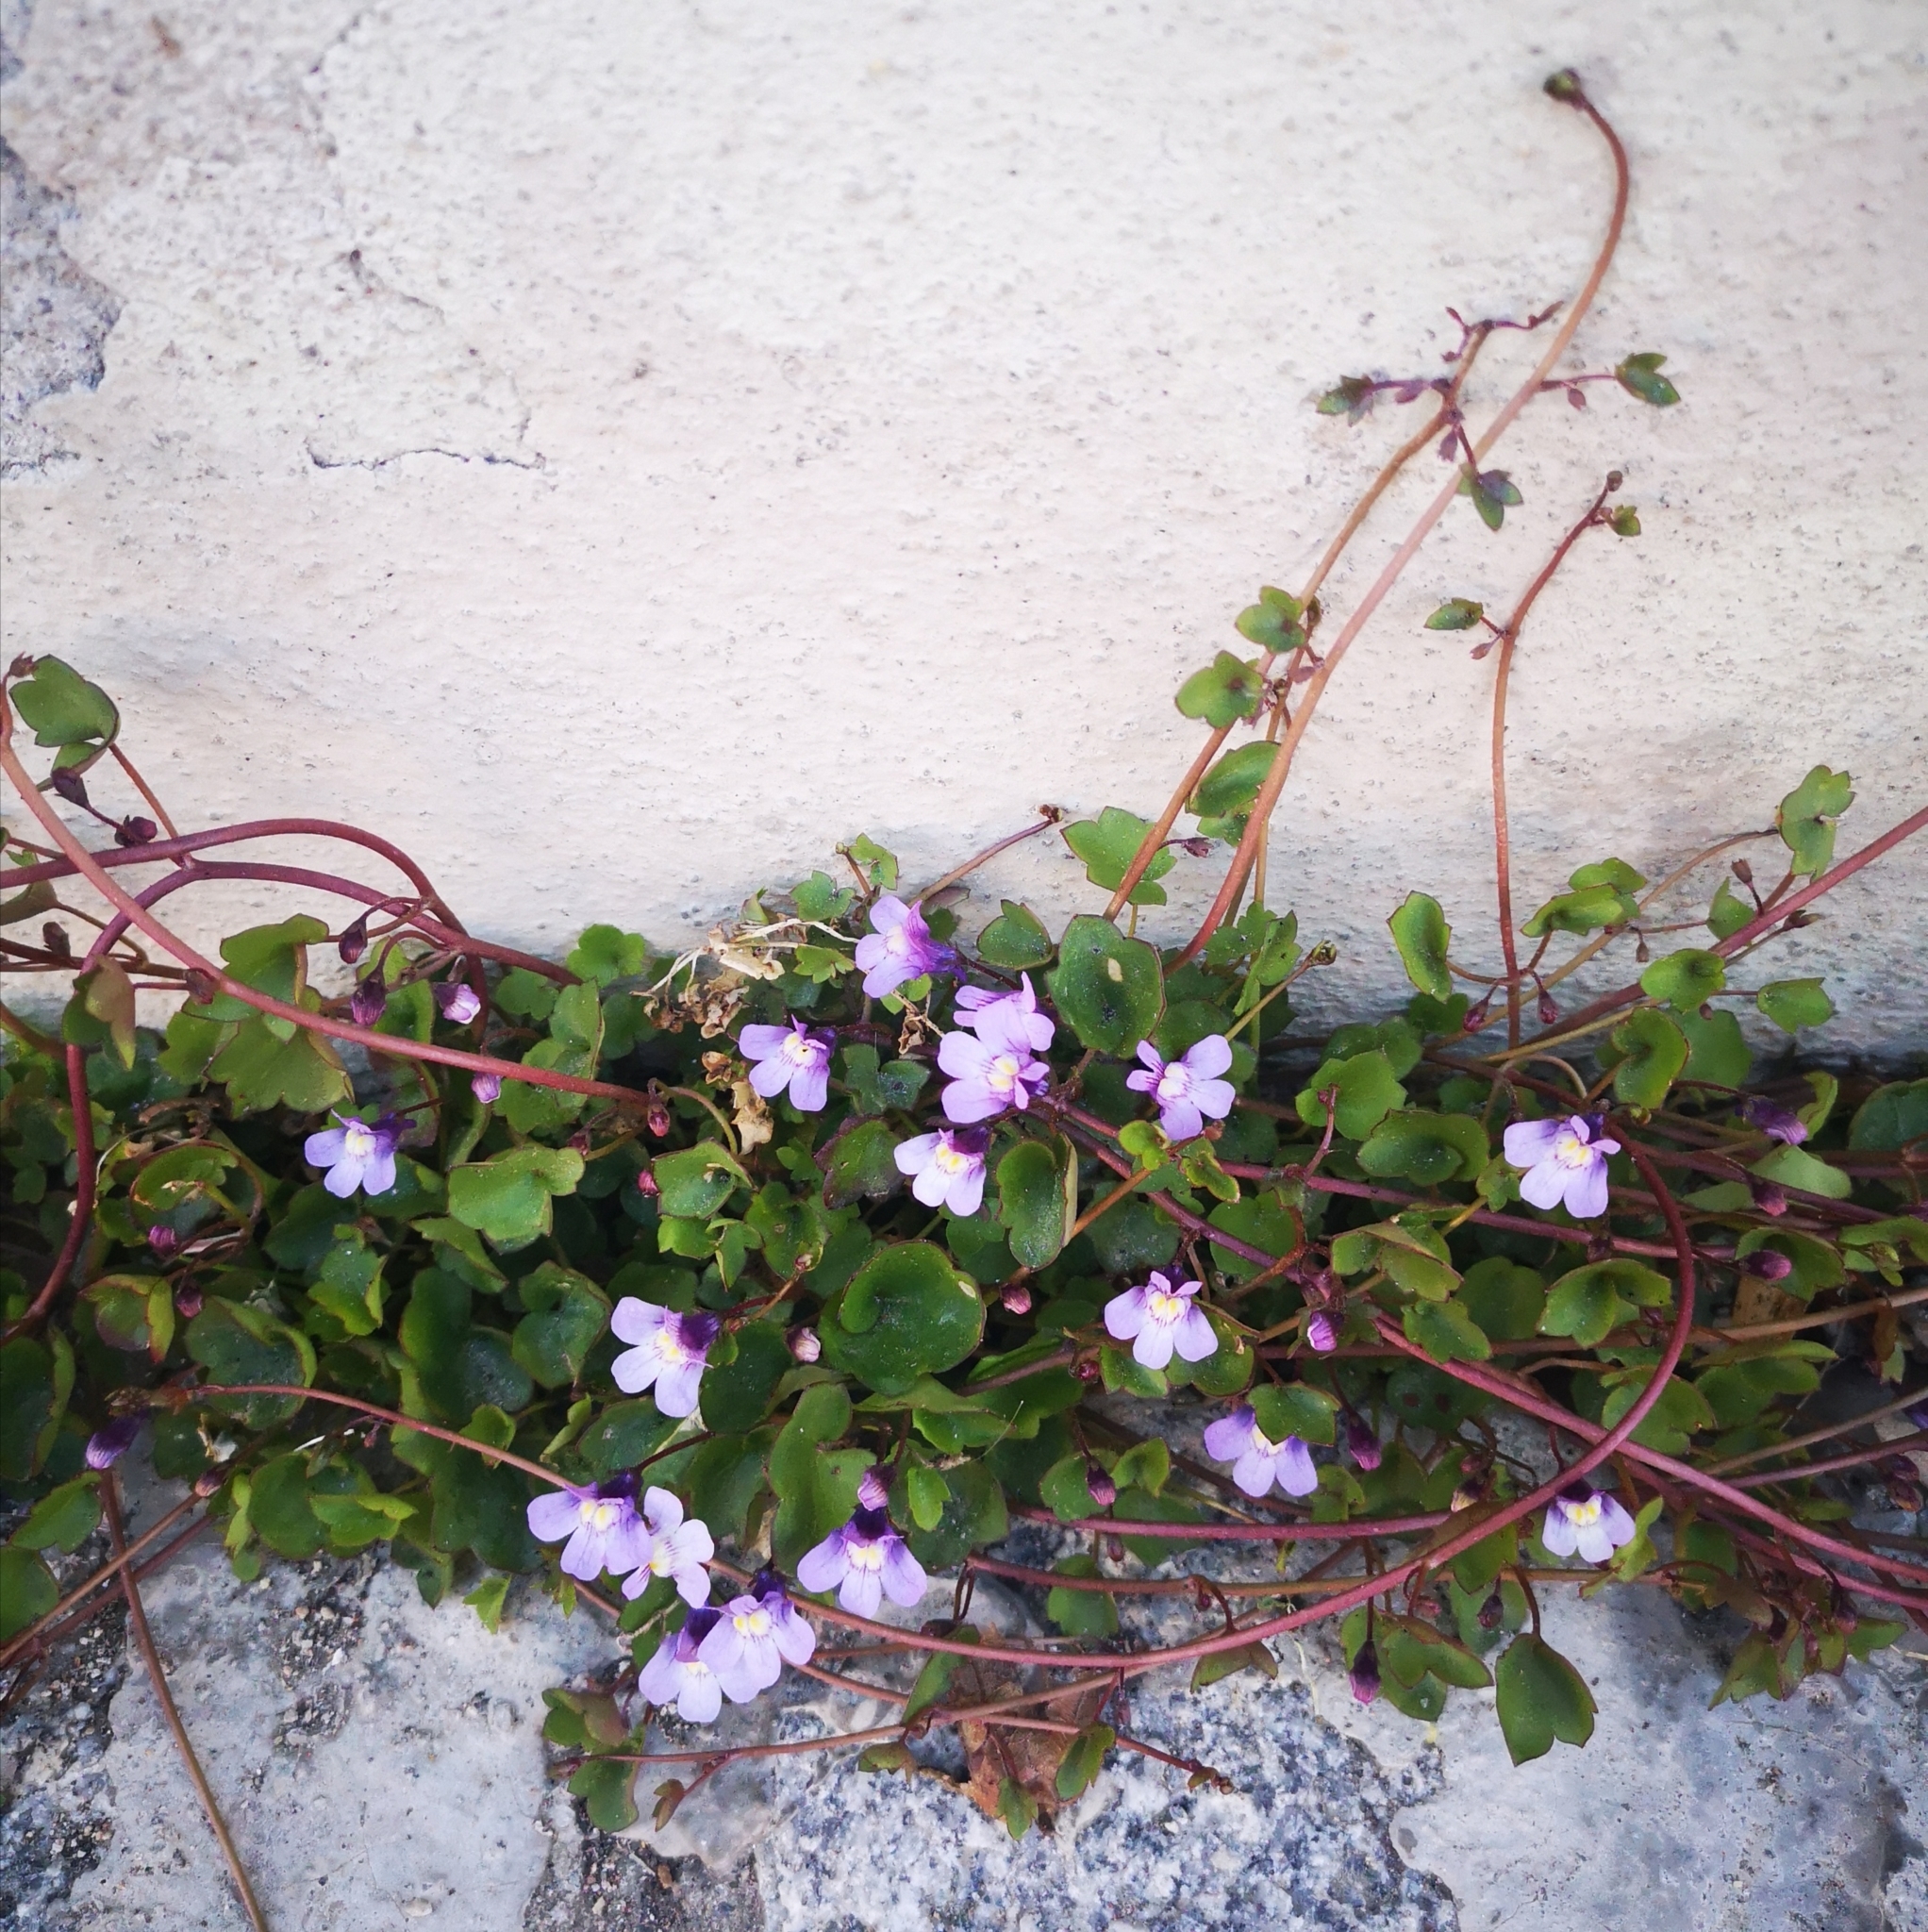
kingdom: Plantae
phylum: Tracheophyta
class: Magnoliopsida
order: Lamiales
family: Plantaginaceae
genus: Cymbalaria
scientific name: Cymbalaria muralis
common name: Ivy-leaved toadflax
